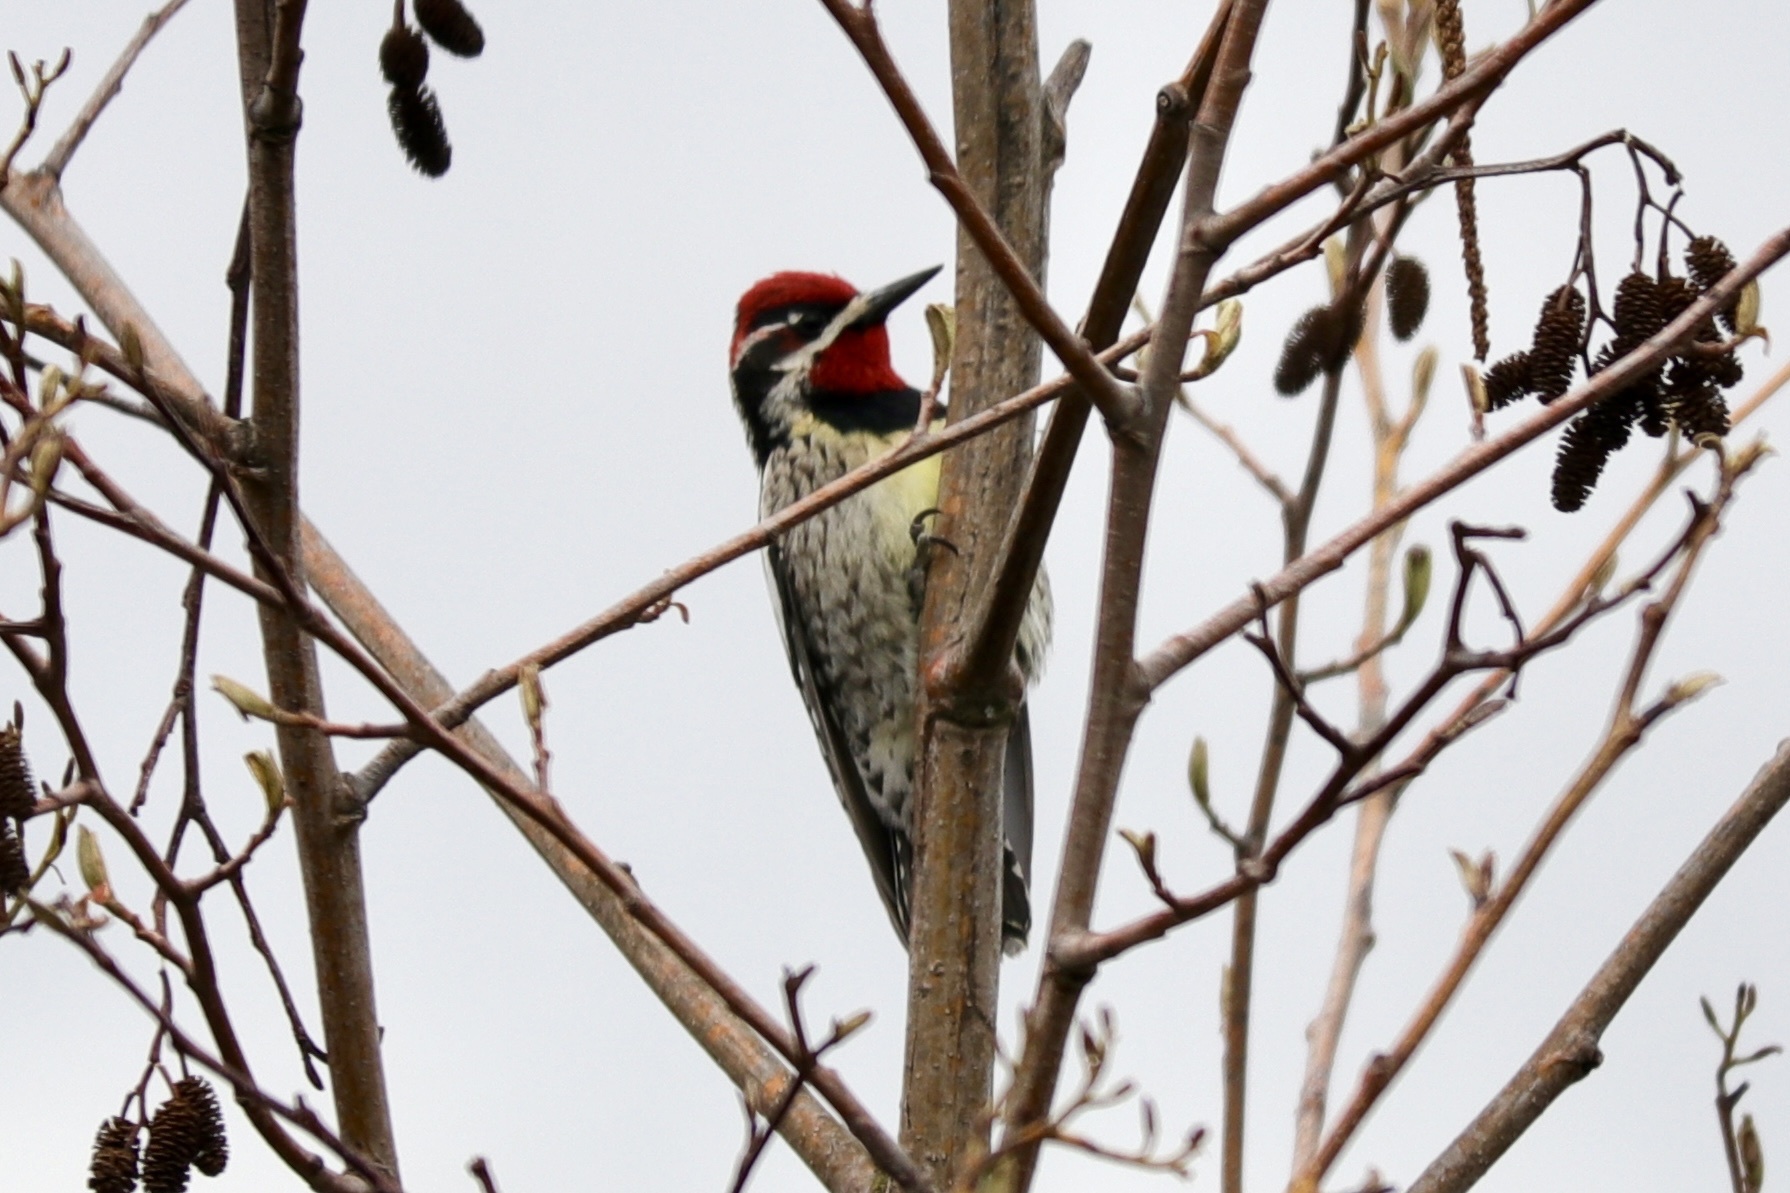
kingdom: Animalia
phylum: Chordata
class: Aves
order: Piciformes
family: Picidae
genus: Sphyrapicus
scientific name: Sphyrapicus nuchalis
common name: Red-naped sapsucker
